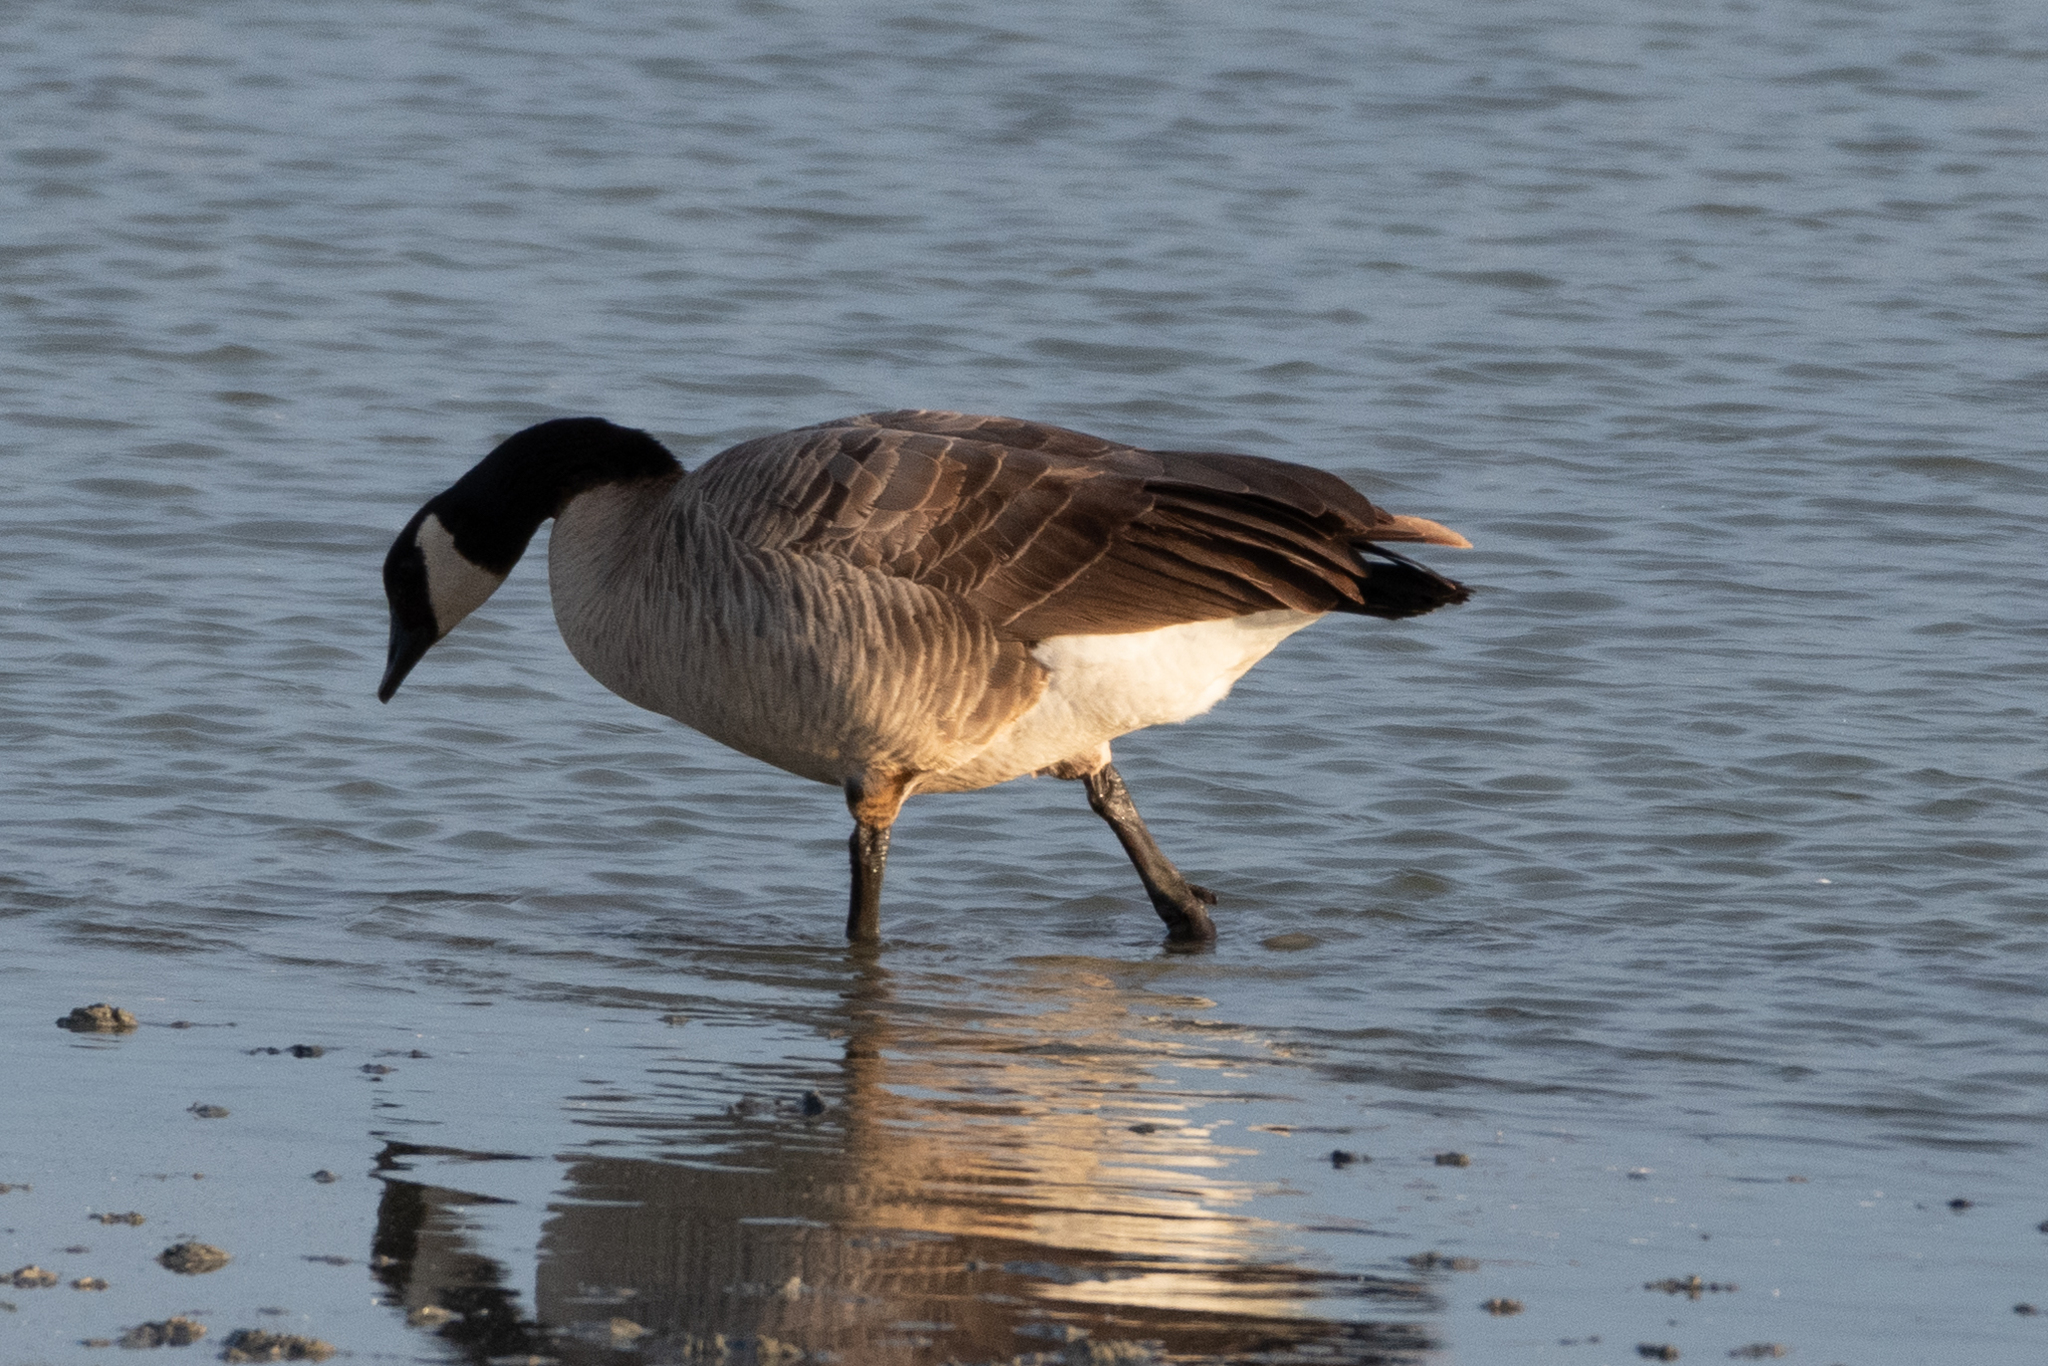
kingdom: Animalia
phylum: Chordata
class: Aves
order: Anseriformes
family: Anatidae
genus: Branta
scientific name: Branta canadensis
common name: Canada goose
